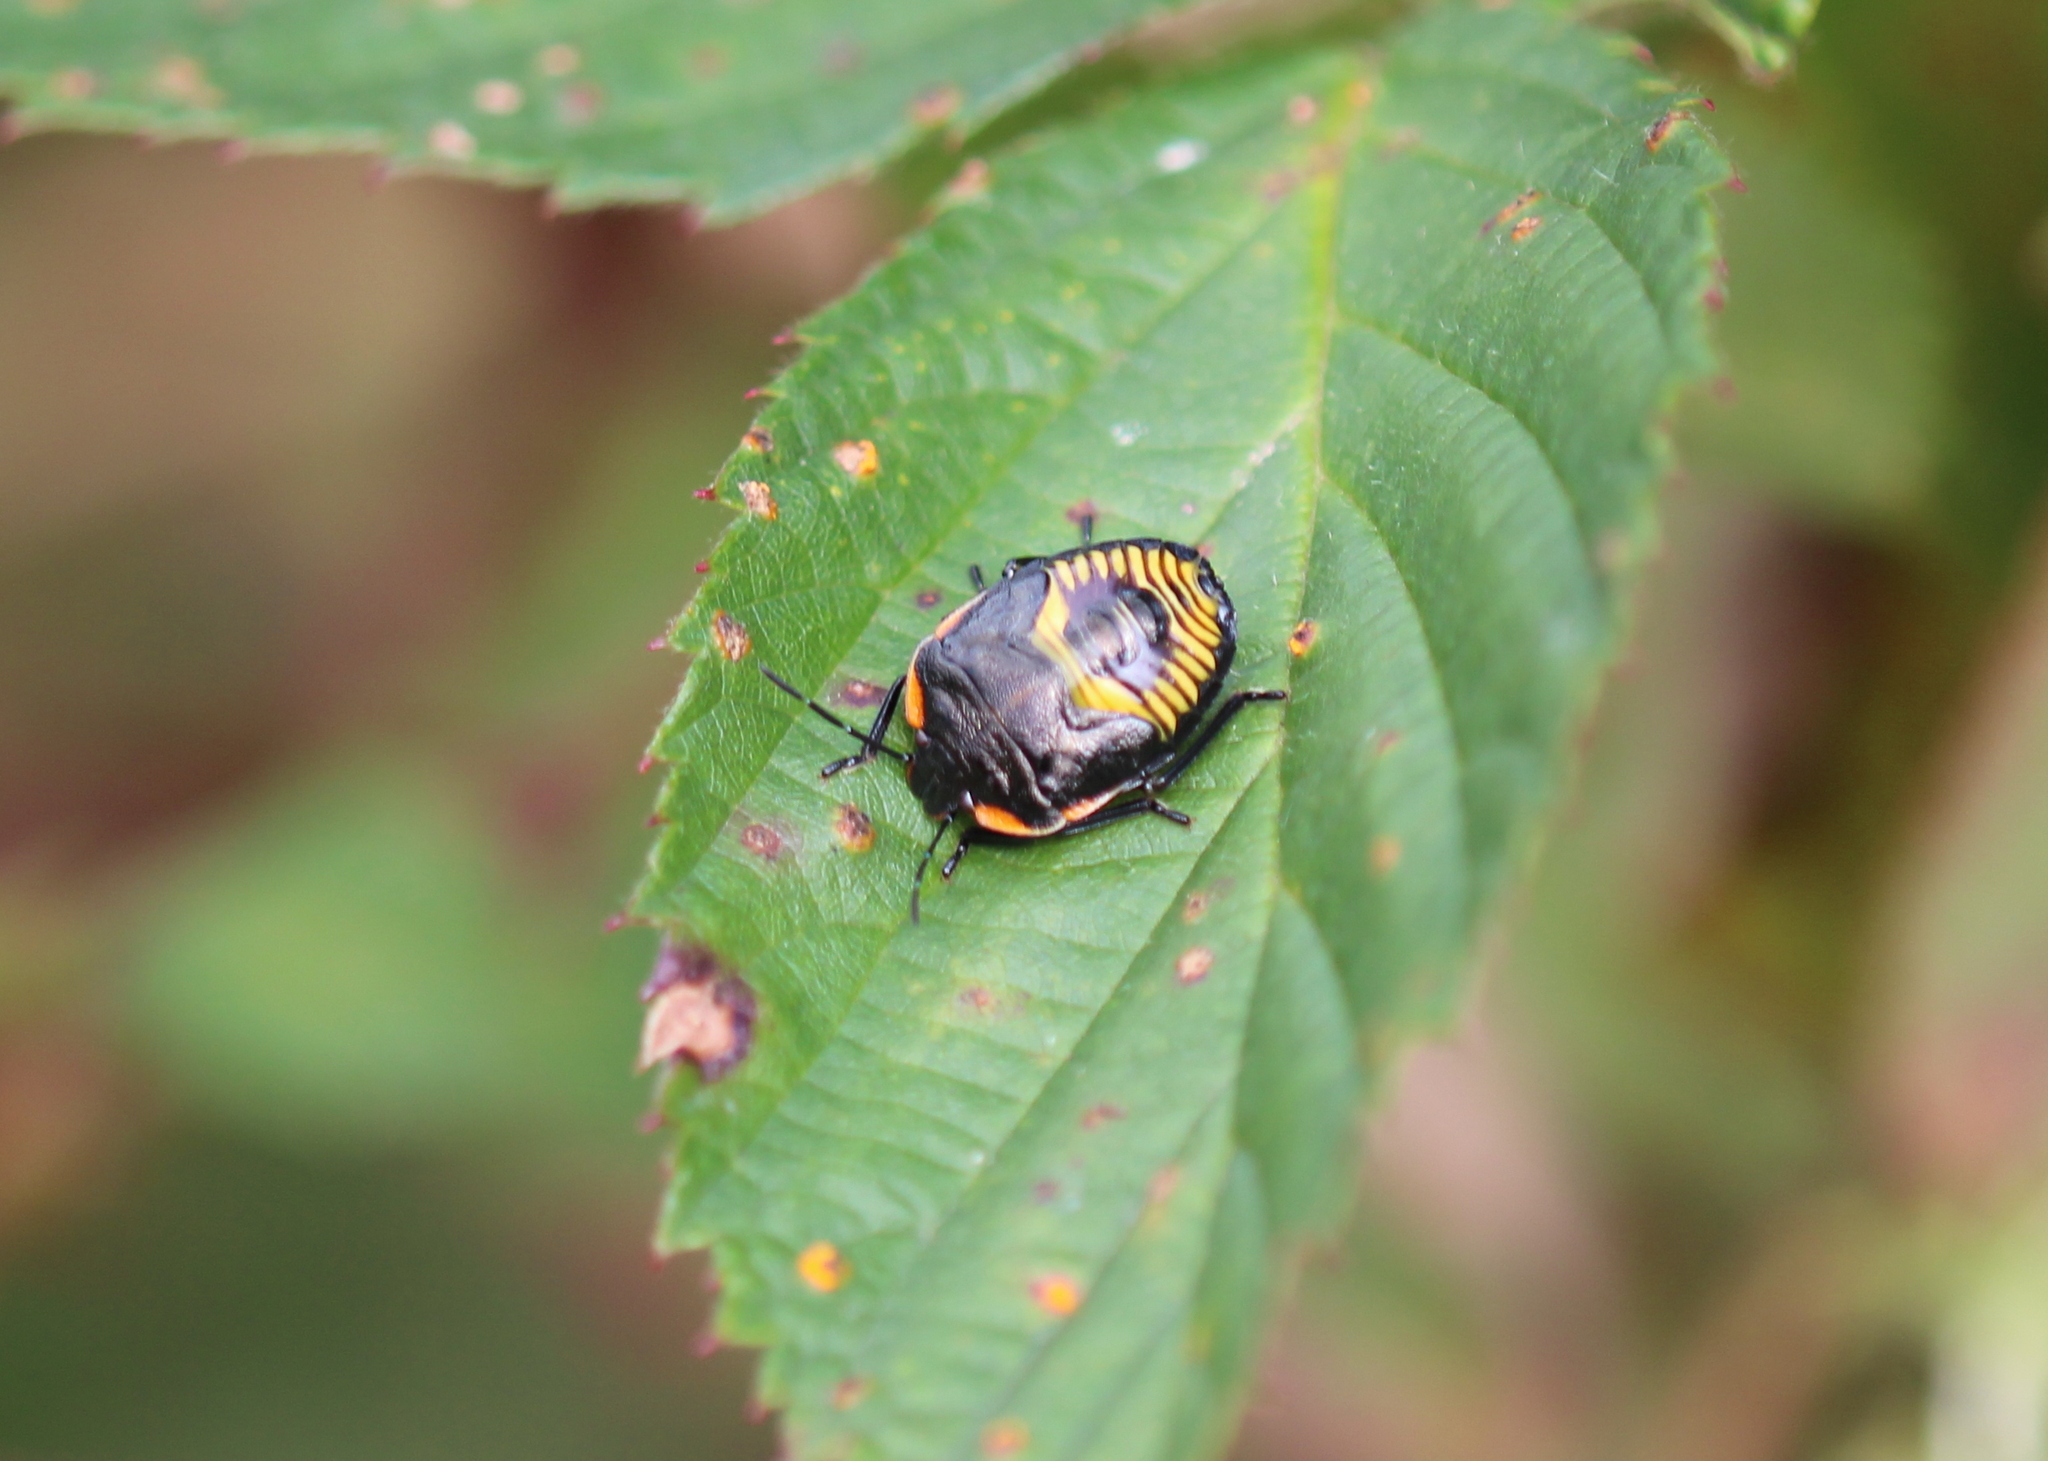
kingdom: Animalia
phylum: Arthropoda
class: Insecta
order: Hemiptera
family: Pentatomidae
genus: Chinavia
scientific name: Chinavia hilaris
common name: Green stink bug
